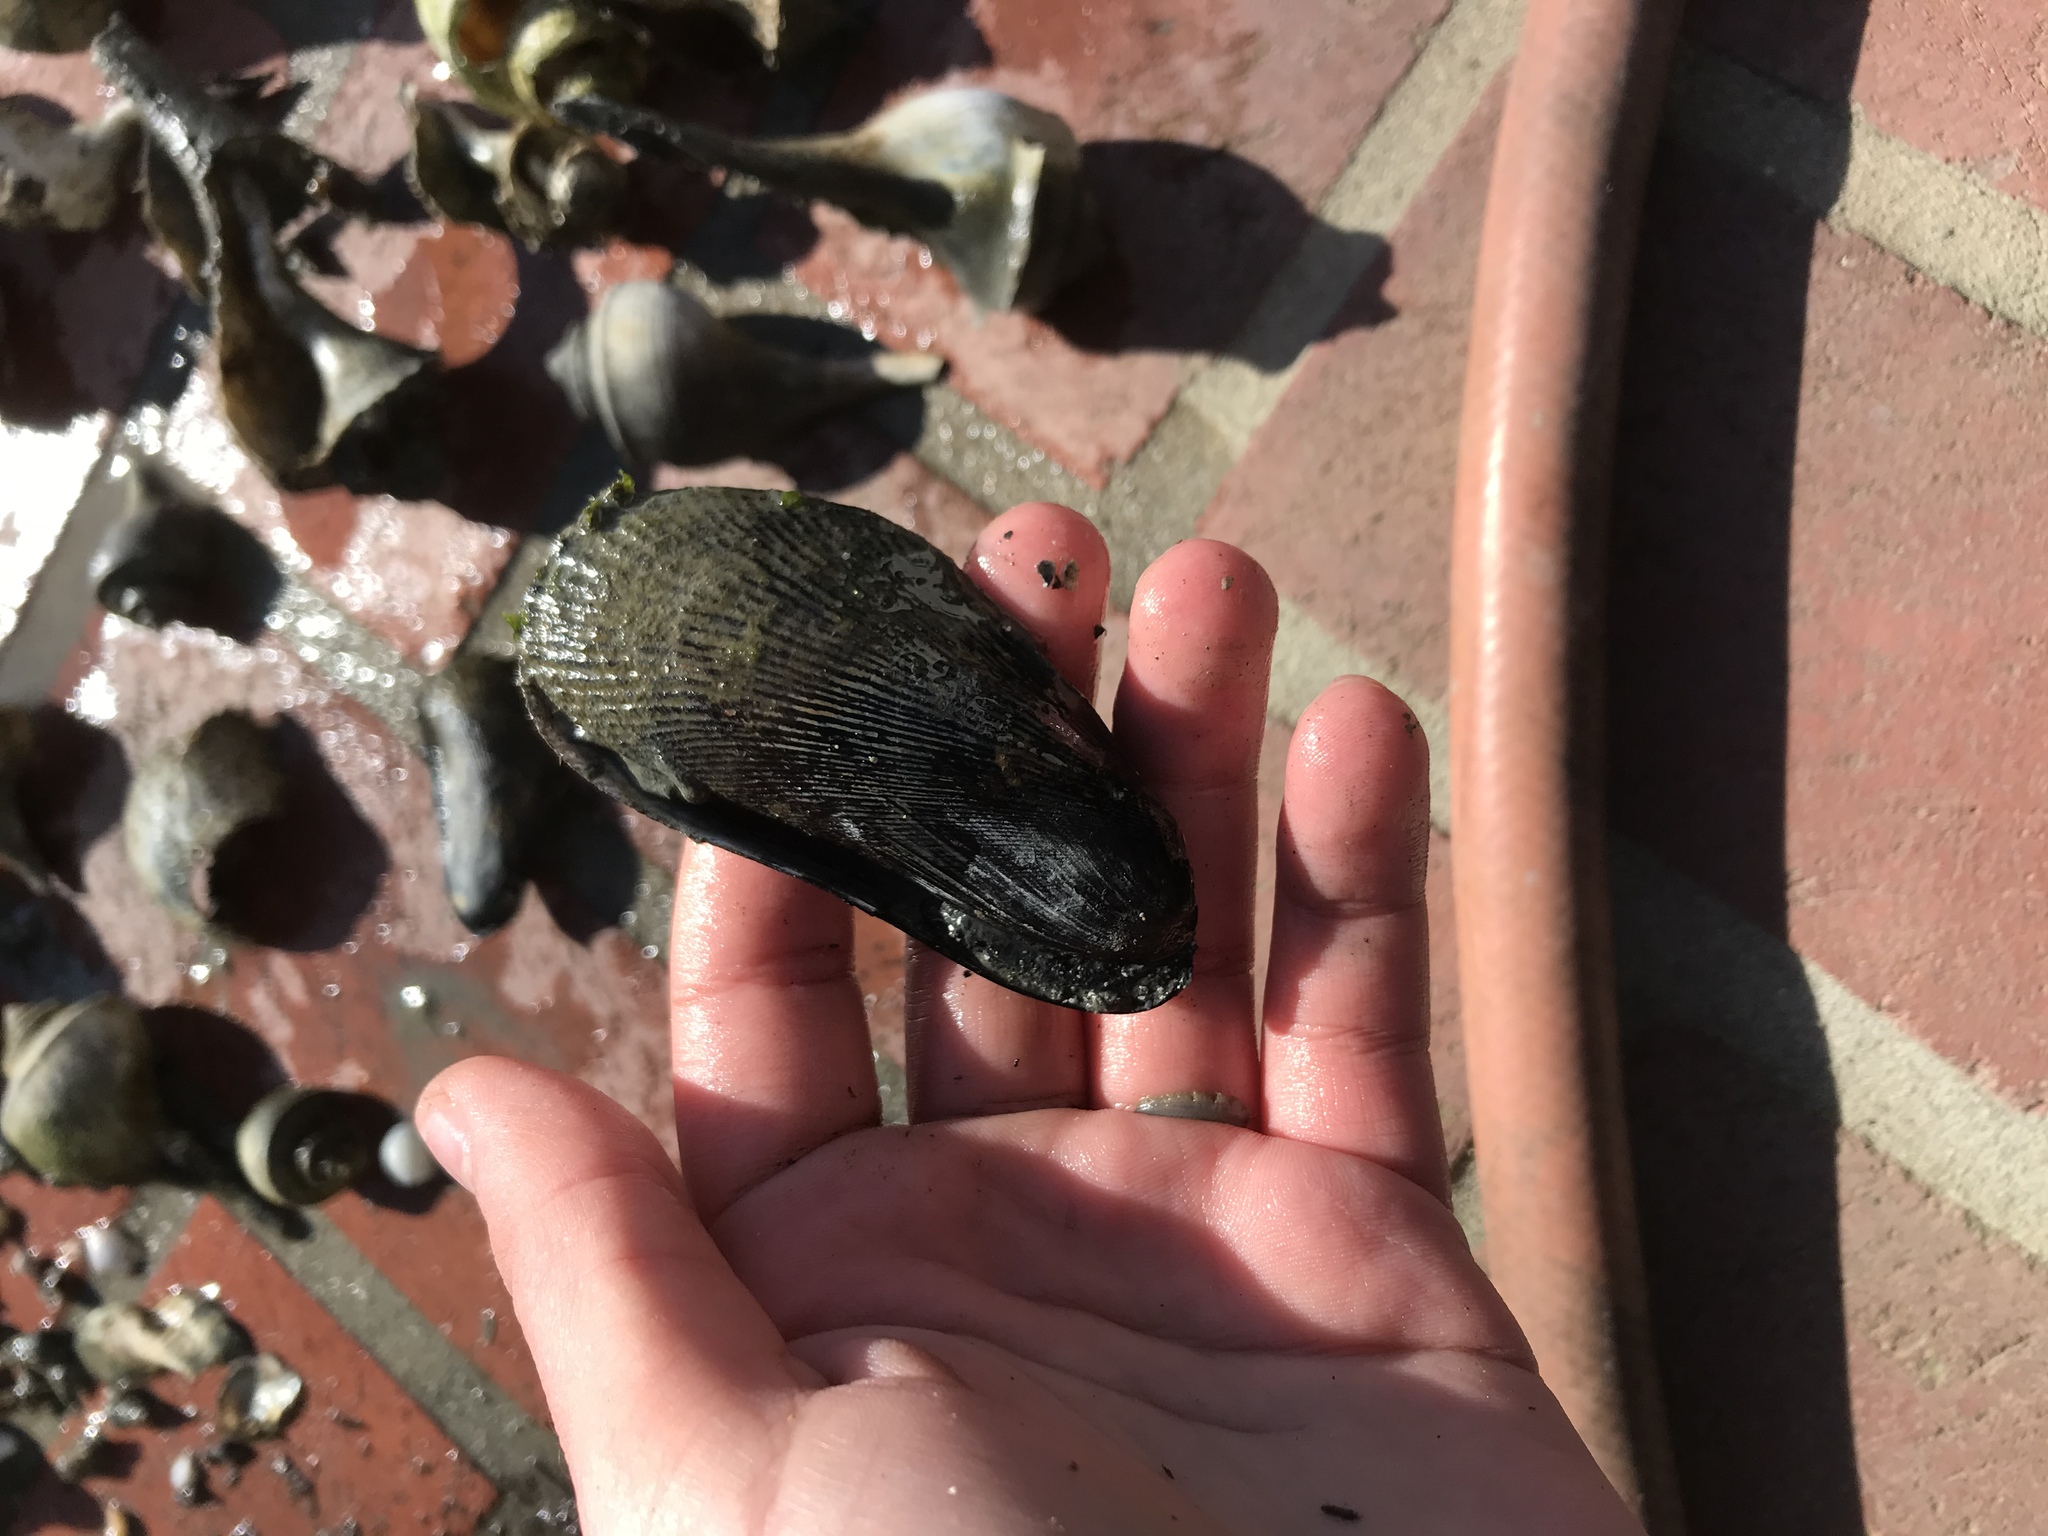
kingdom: Animalia
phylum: Mollusca
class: Bivalvia
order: Mytilida
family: Mytilidae
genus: Geukensia
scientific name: Geukensia demissa
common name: Ribbed mussel
